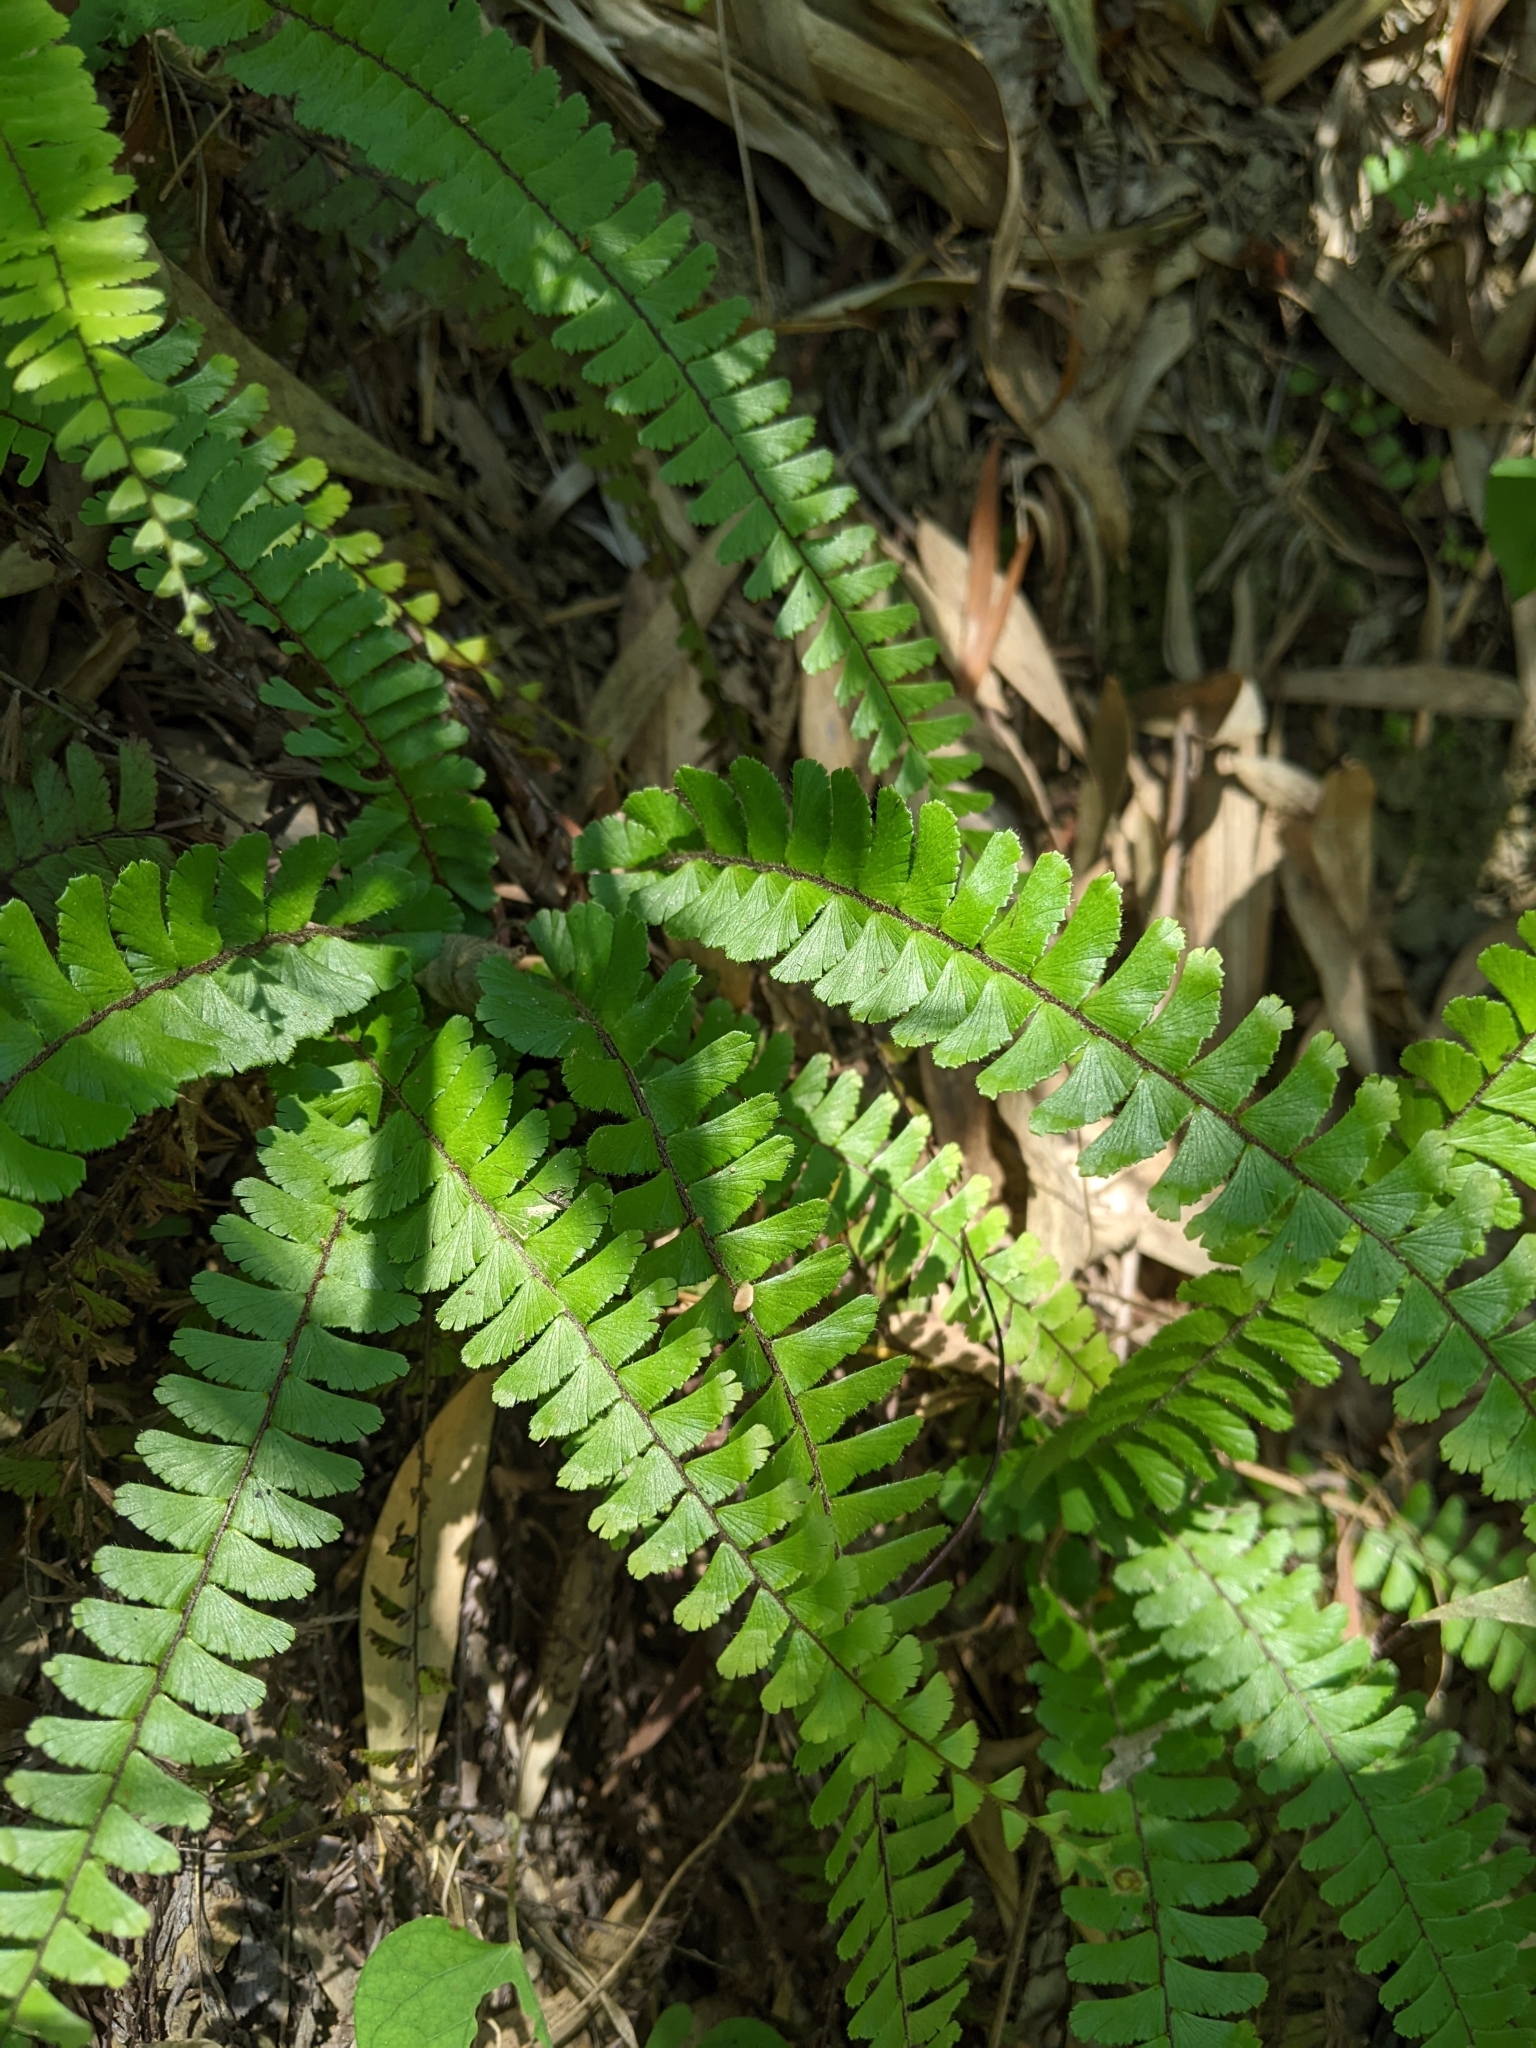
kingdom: Plantae
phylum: Tracheophyta
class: Polypodiopsida
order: Polypodiales
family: Pteridaceae
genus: Adiantum
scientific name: Adiantum caudatum
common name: Tailed maidenhair
